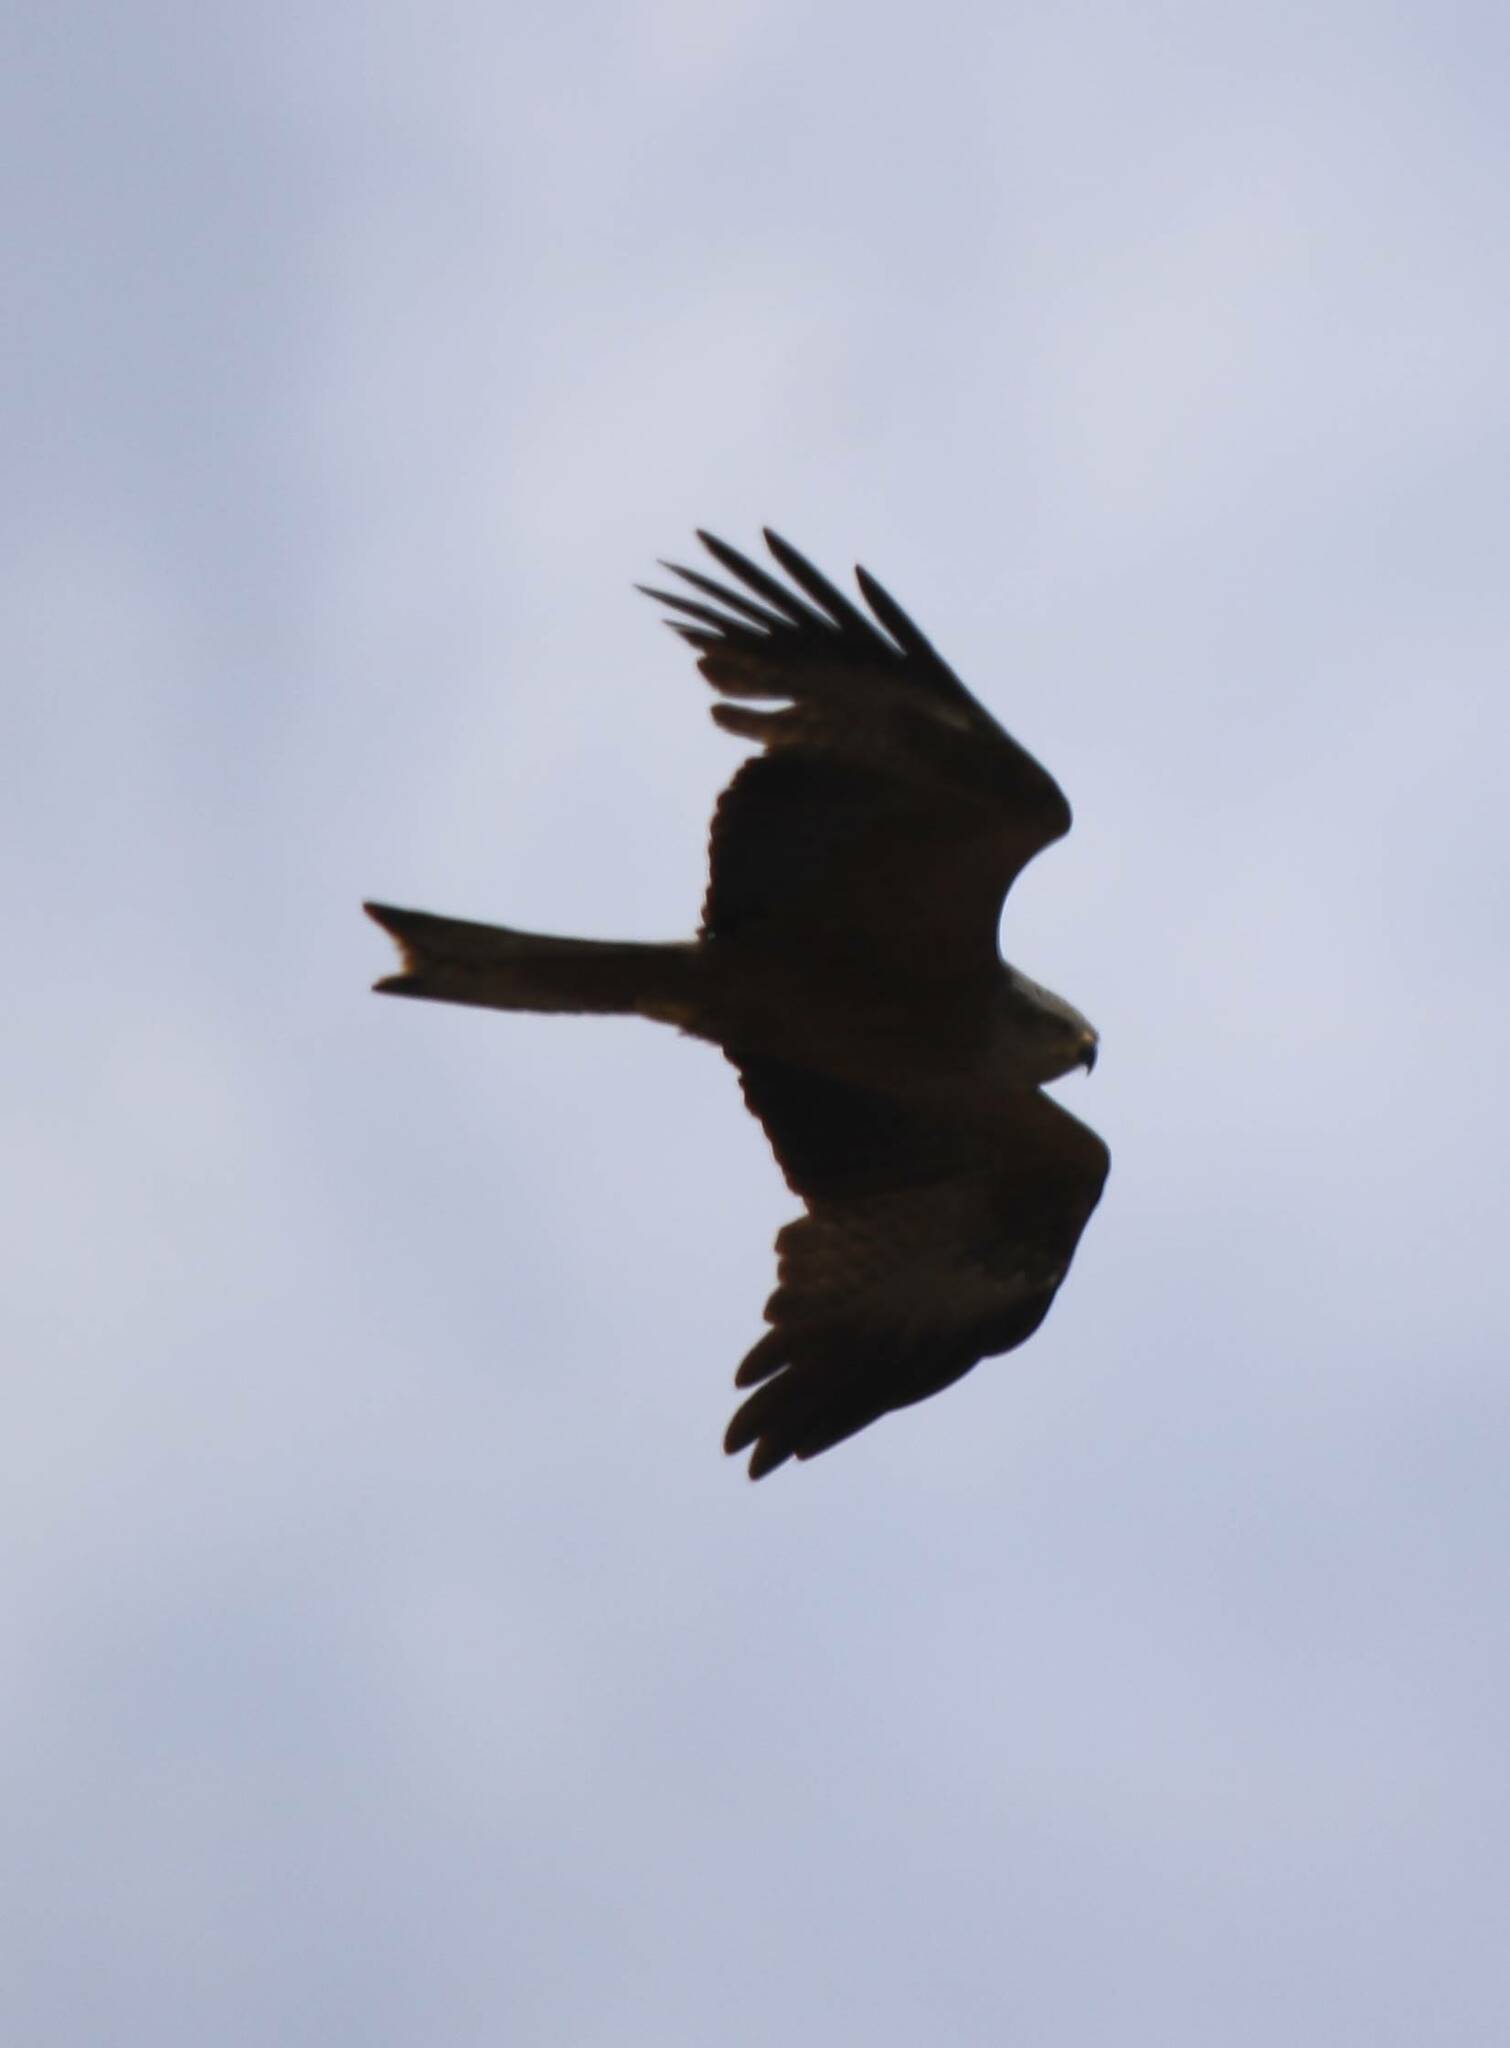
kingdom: Animalia
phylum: Chordata
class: Aves
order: Accipitriformes
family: Accipitridae
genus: Milvus
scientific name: Milvus migrans
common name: Black kite
